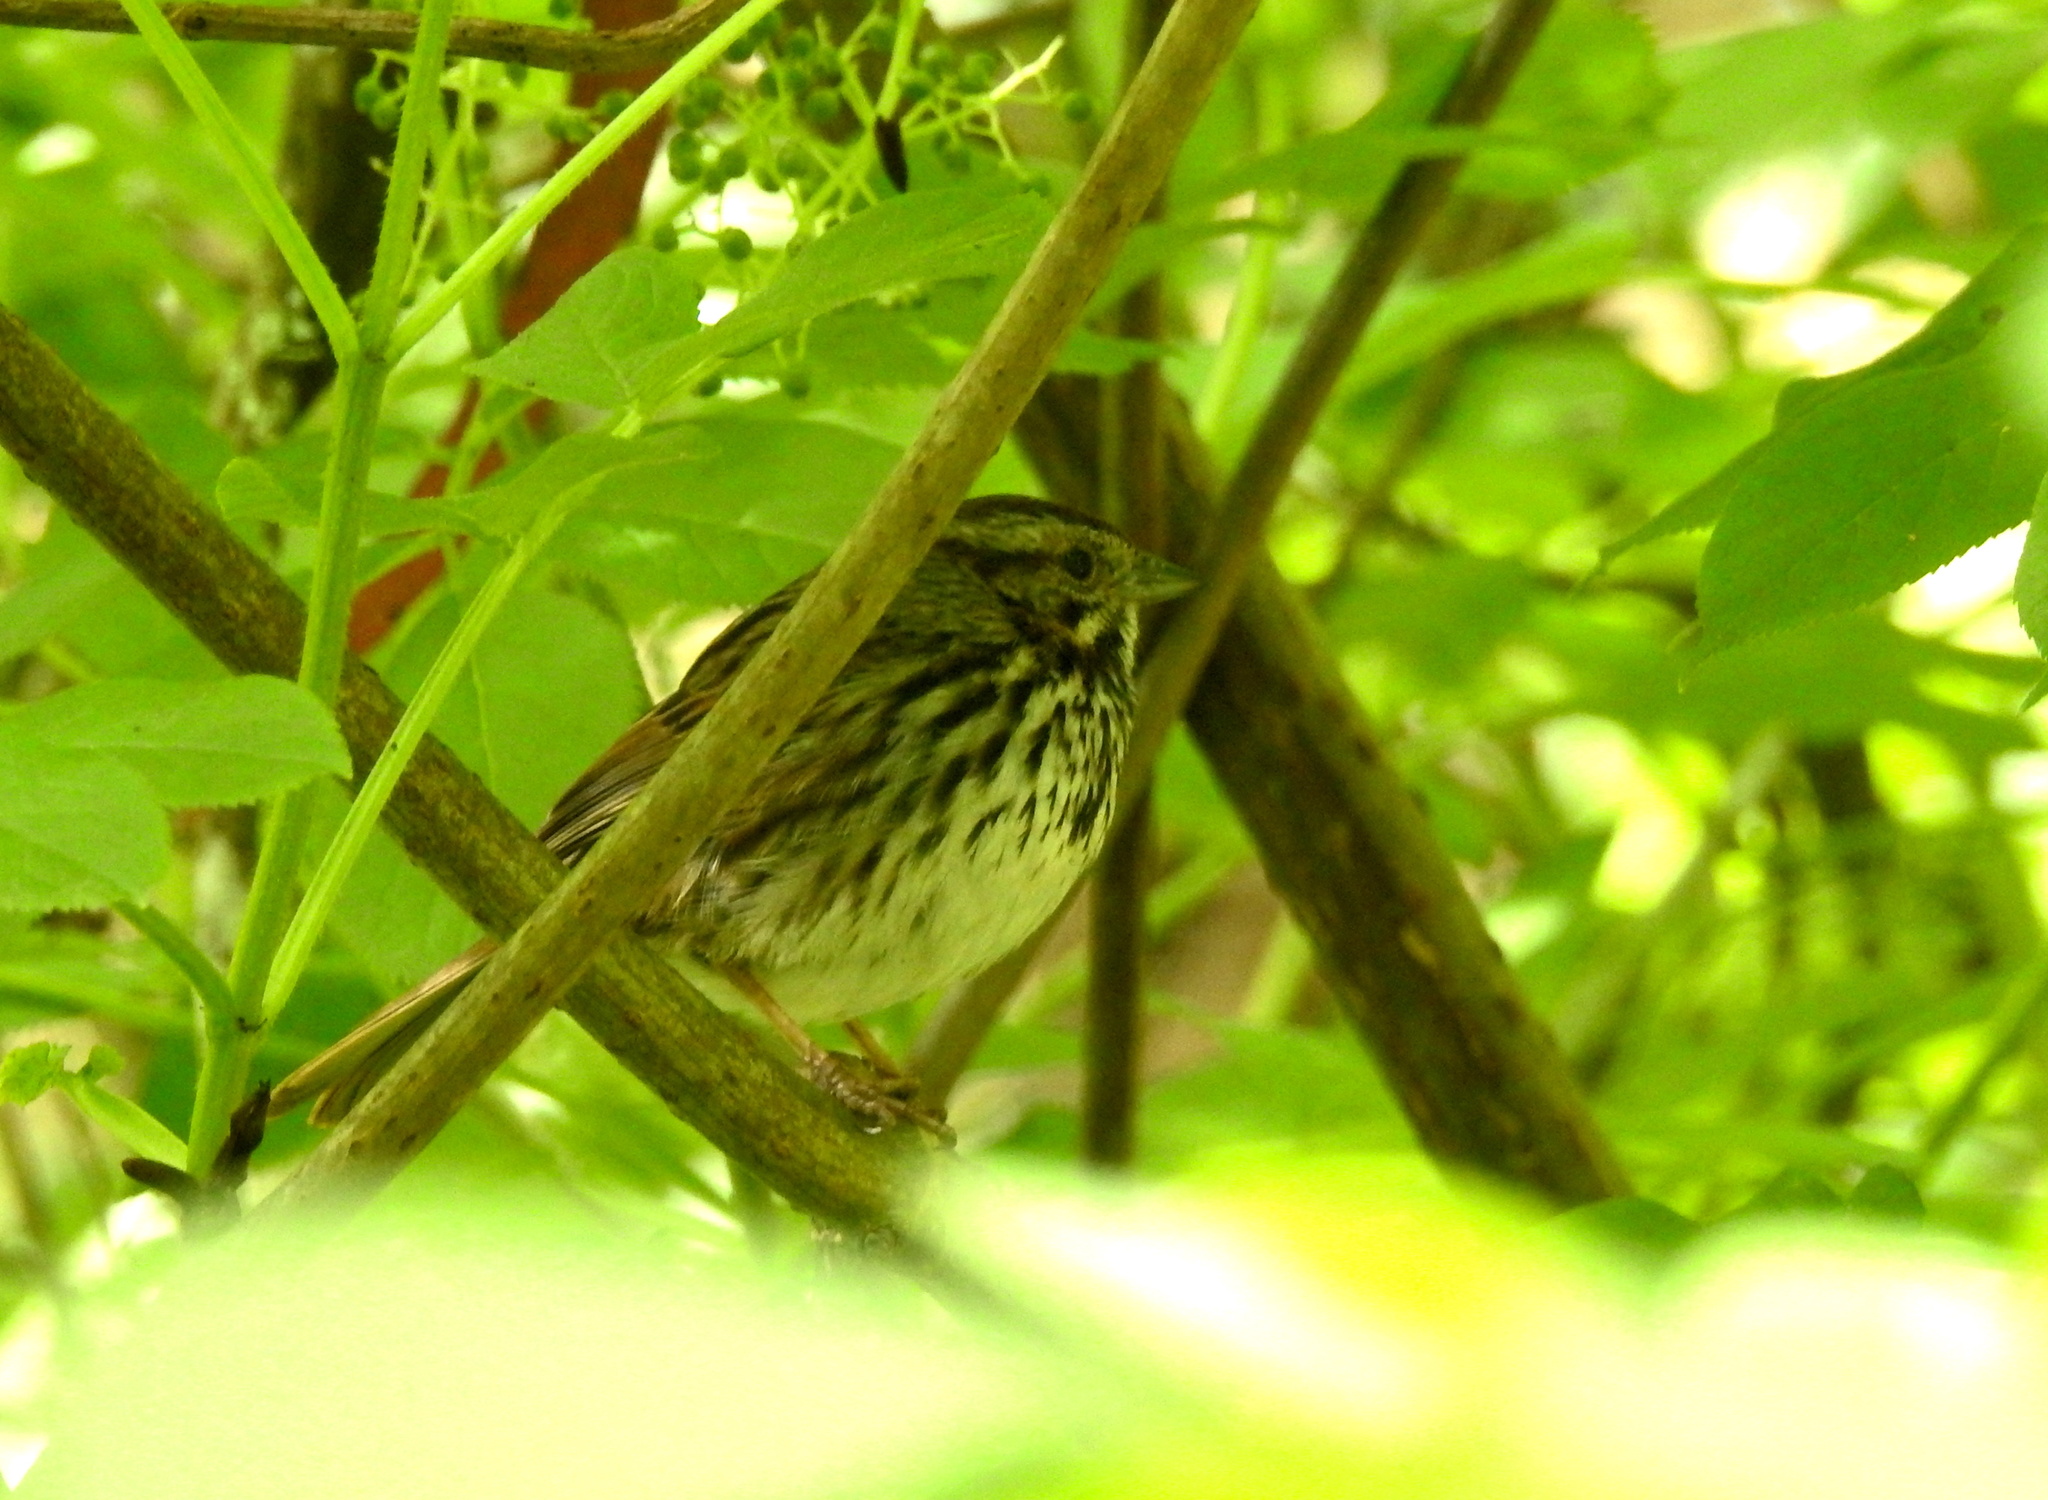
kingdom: Animalia
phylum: Chordata
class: Aves
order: Passeriformes
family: Passerellidae
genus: Melospiza
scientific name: Melospiza melodia
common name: Song sparrow
